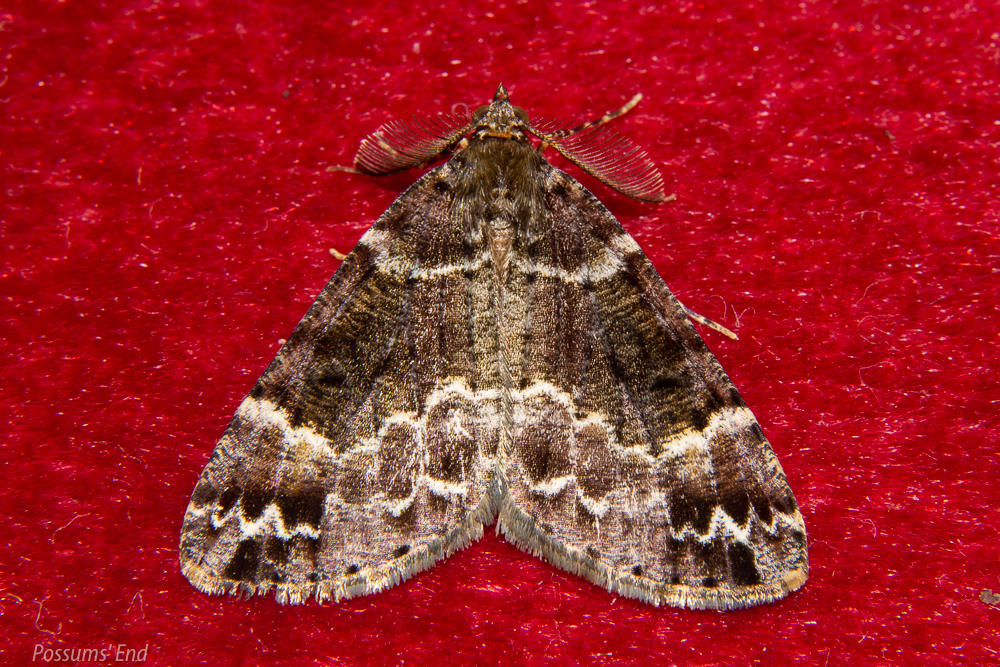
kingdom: Animalia
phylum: Arthropoda
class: Insecta
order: Lepidoptera
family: Geometridae
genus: Pseudocoremia
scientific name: Pseudocoremia productata
